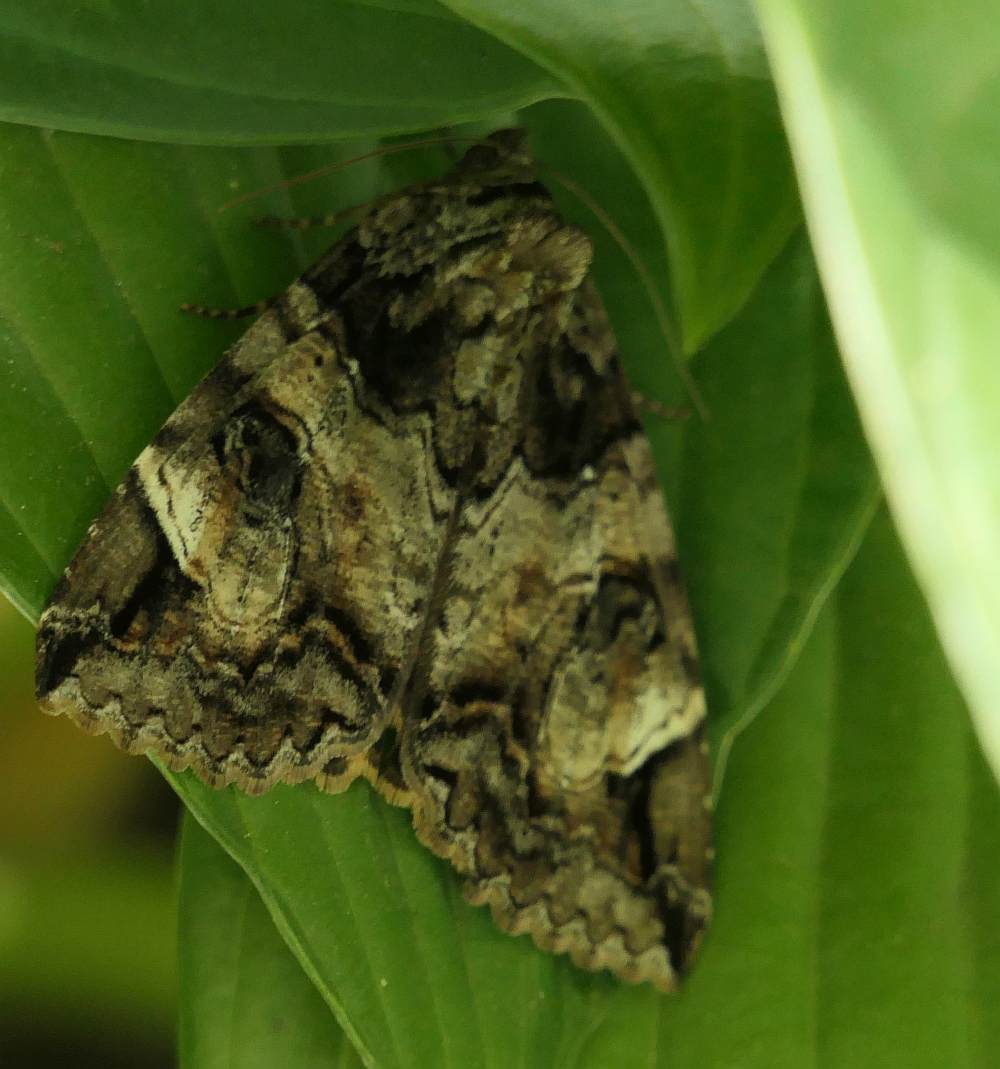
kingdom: Animalia
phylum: Arthropoda
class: Insecta
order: Lepidoptera
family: Erebidae
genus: Euparthenos
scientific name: Euparthenos nubilis
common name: Locust underwing
